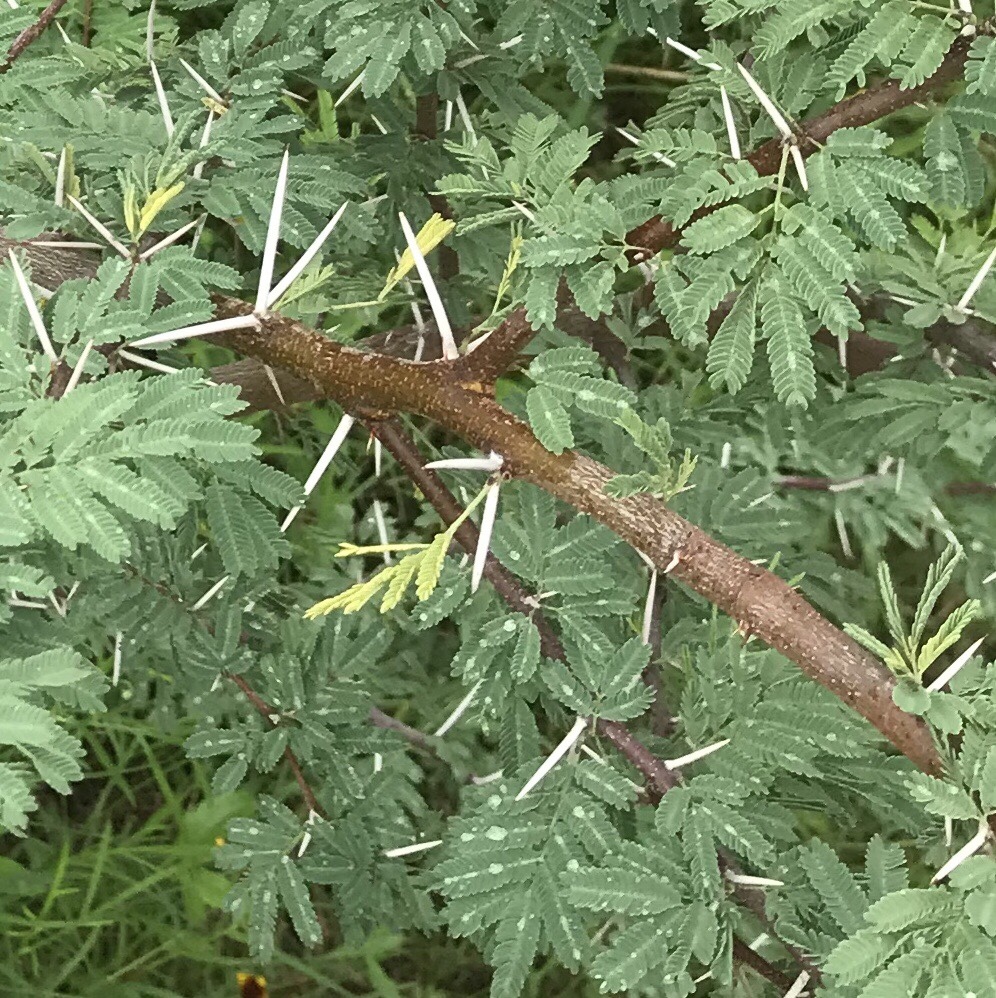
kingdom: Plantae
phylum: Tracheophyta
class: Magnoliopsida
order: Fabales
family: Fabaceae
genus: Vachellia
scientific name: Vachellia farnesiana
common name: Sweet acacia
